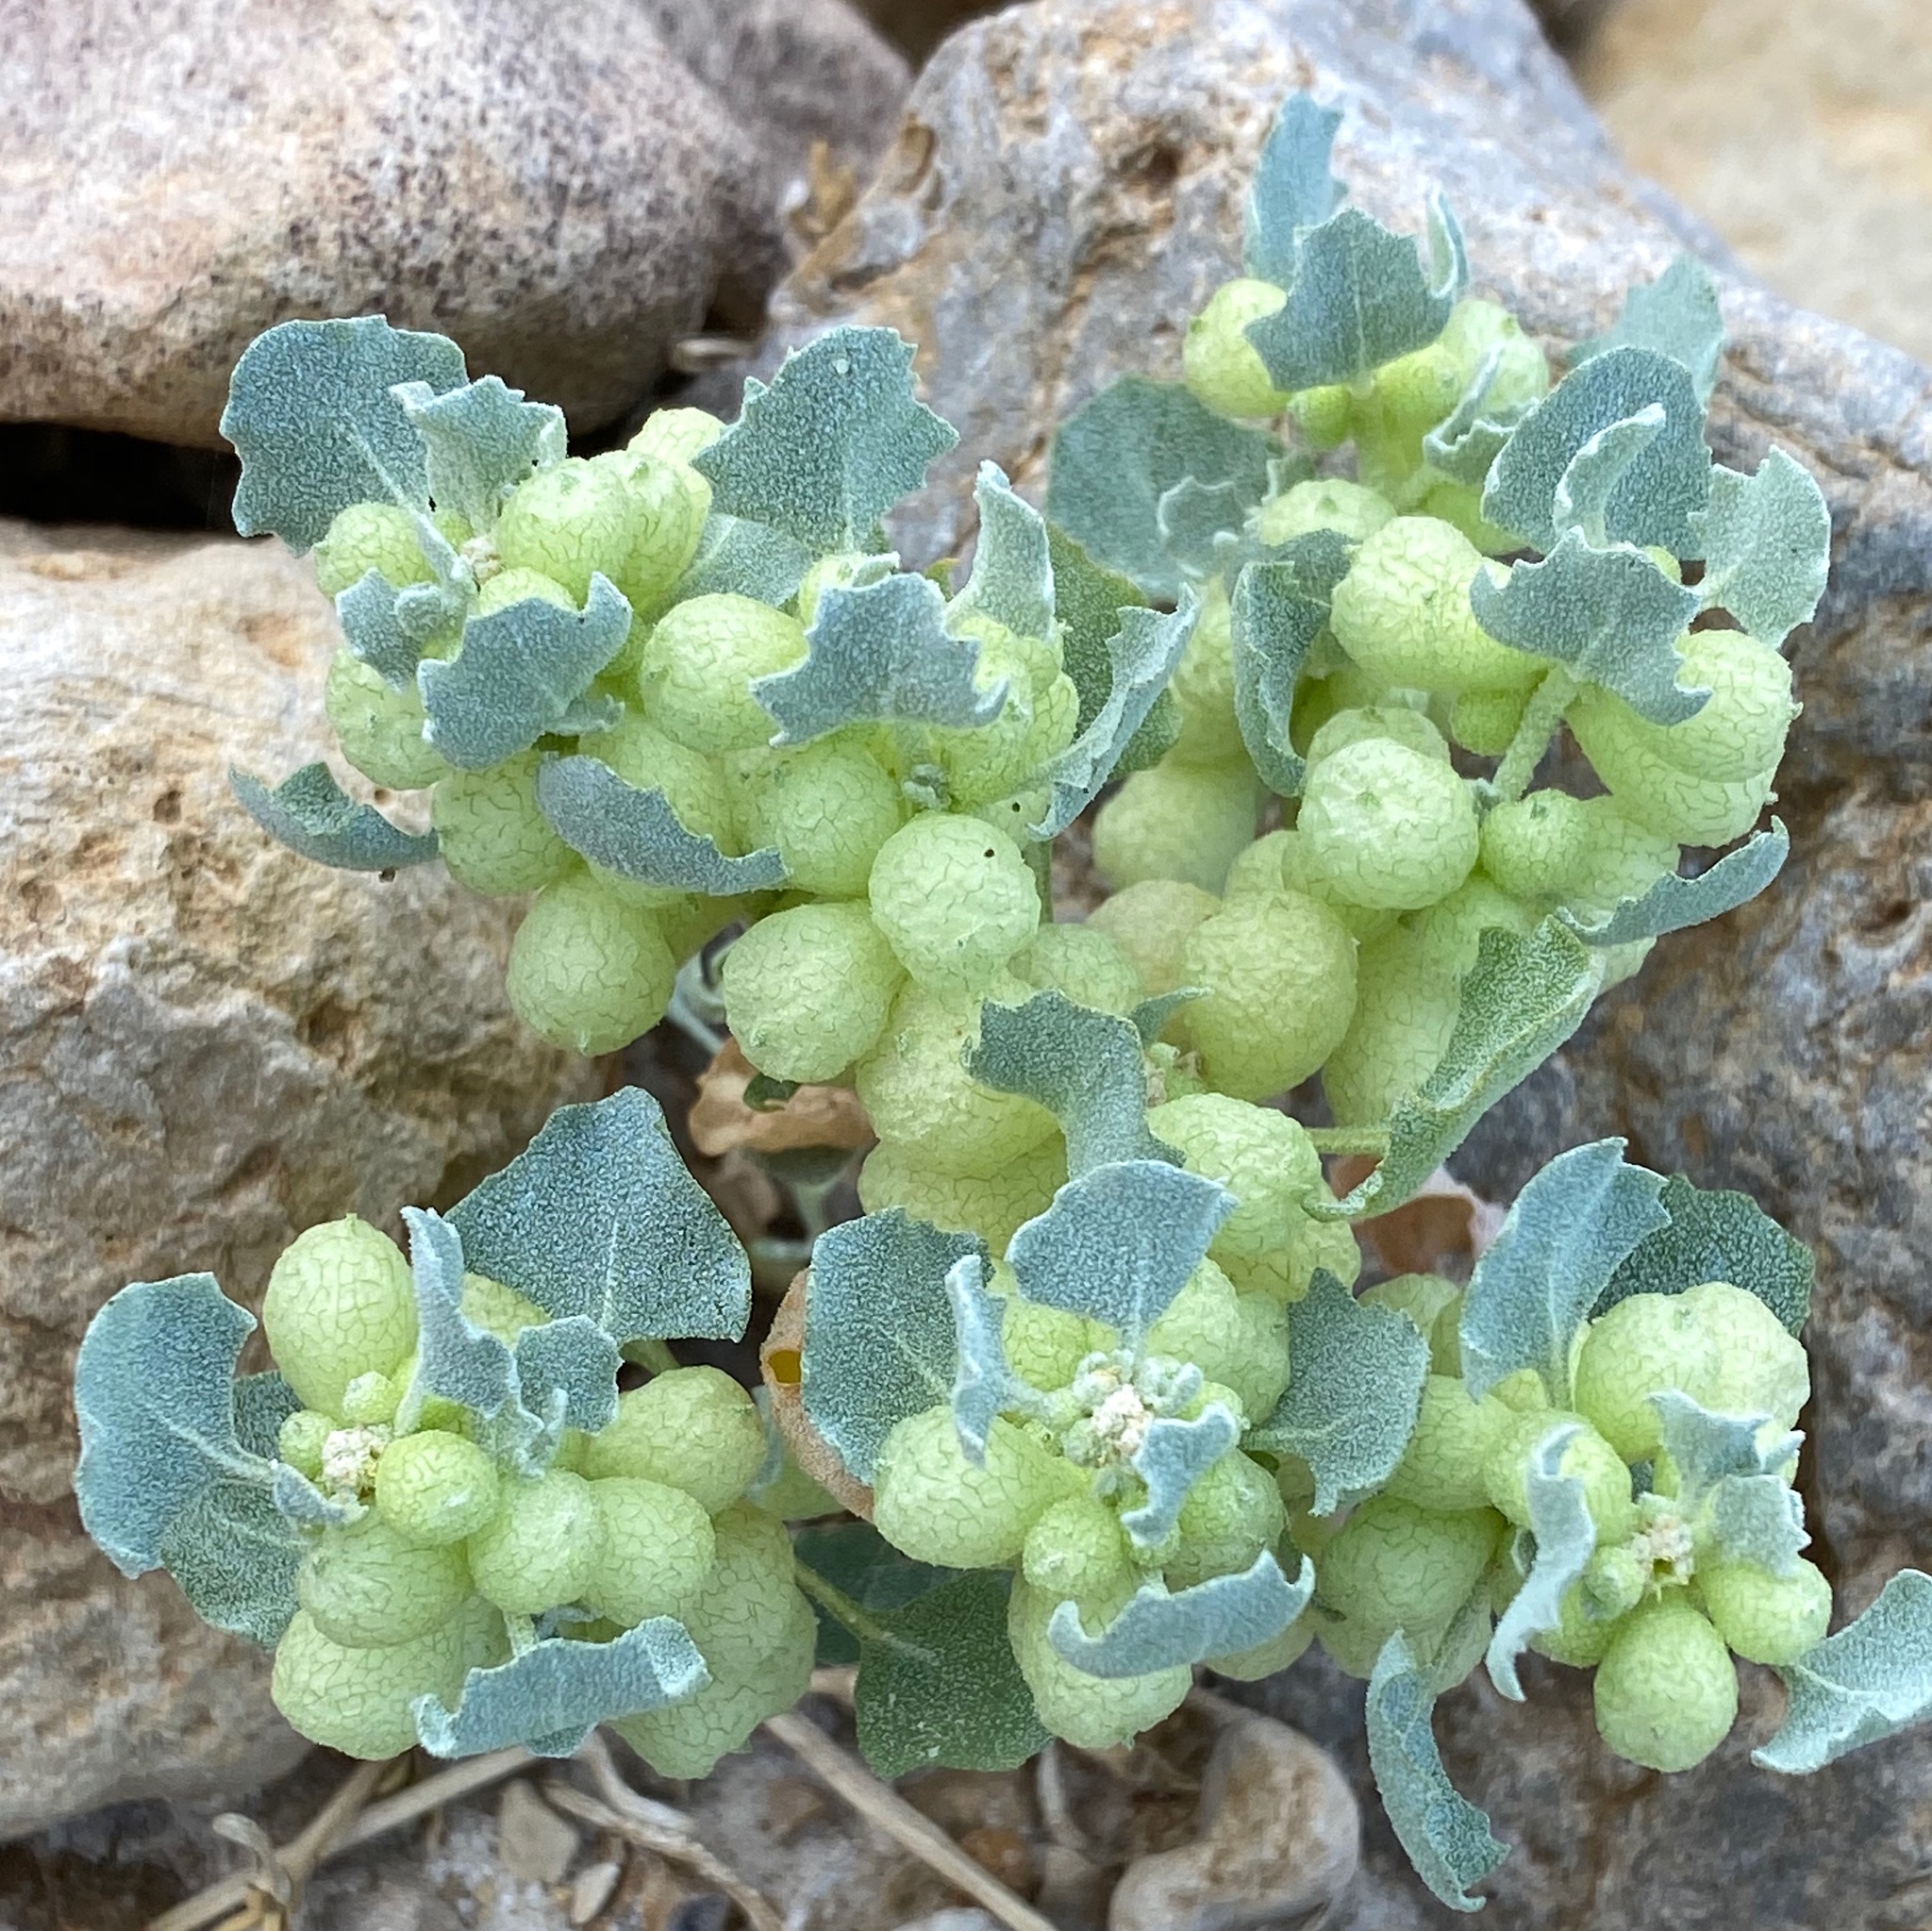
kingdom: Plantae
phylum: Tracheophyta
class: Magnoliopsida
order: Caryophyllales
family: Amaranthaceae
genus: Atriplex
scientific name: Atriplex holocarpa
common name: Pop saltbush
